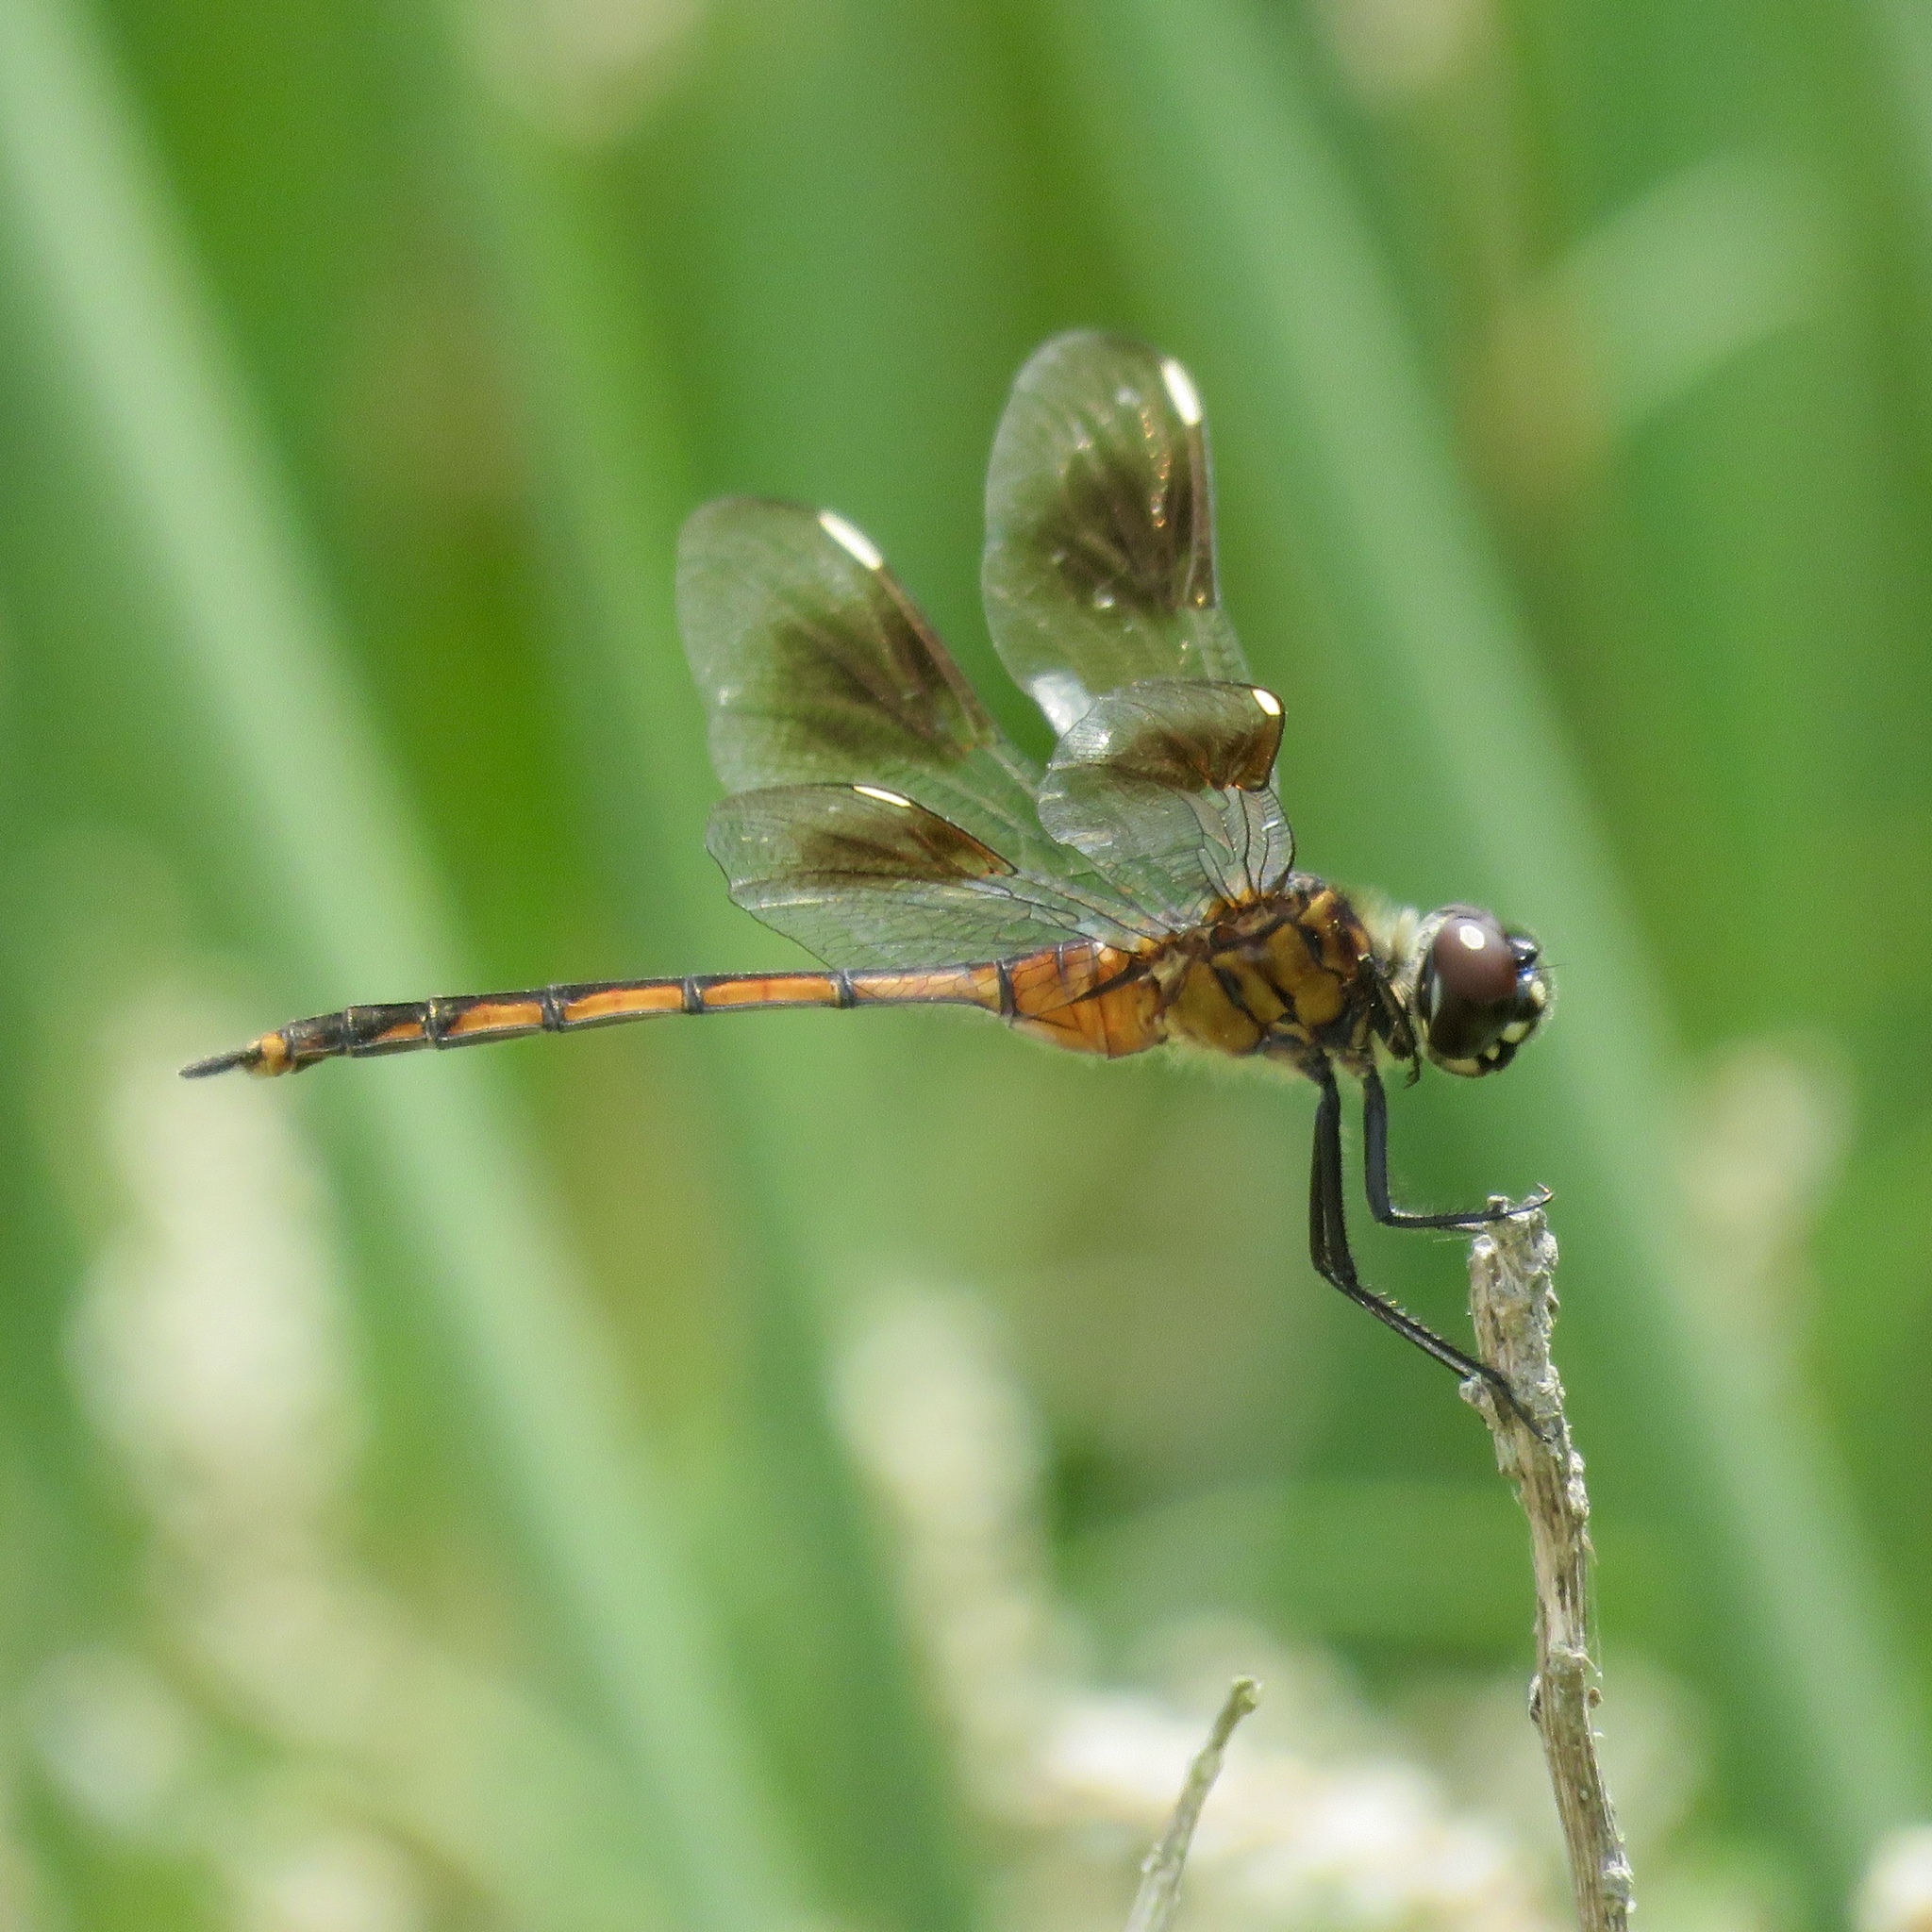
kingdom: Animalia
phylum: Arthropoda
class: Insecta
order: Odonata
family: Libellulidae
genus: Brachymesia
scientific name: Brachymesia gravida
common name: Four-spotted pennant
